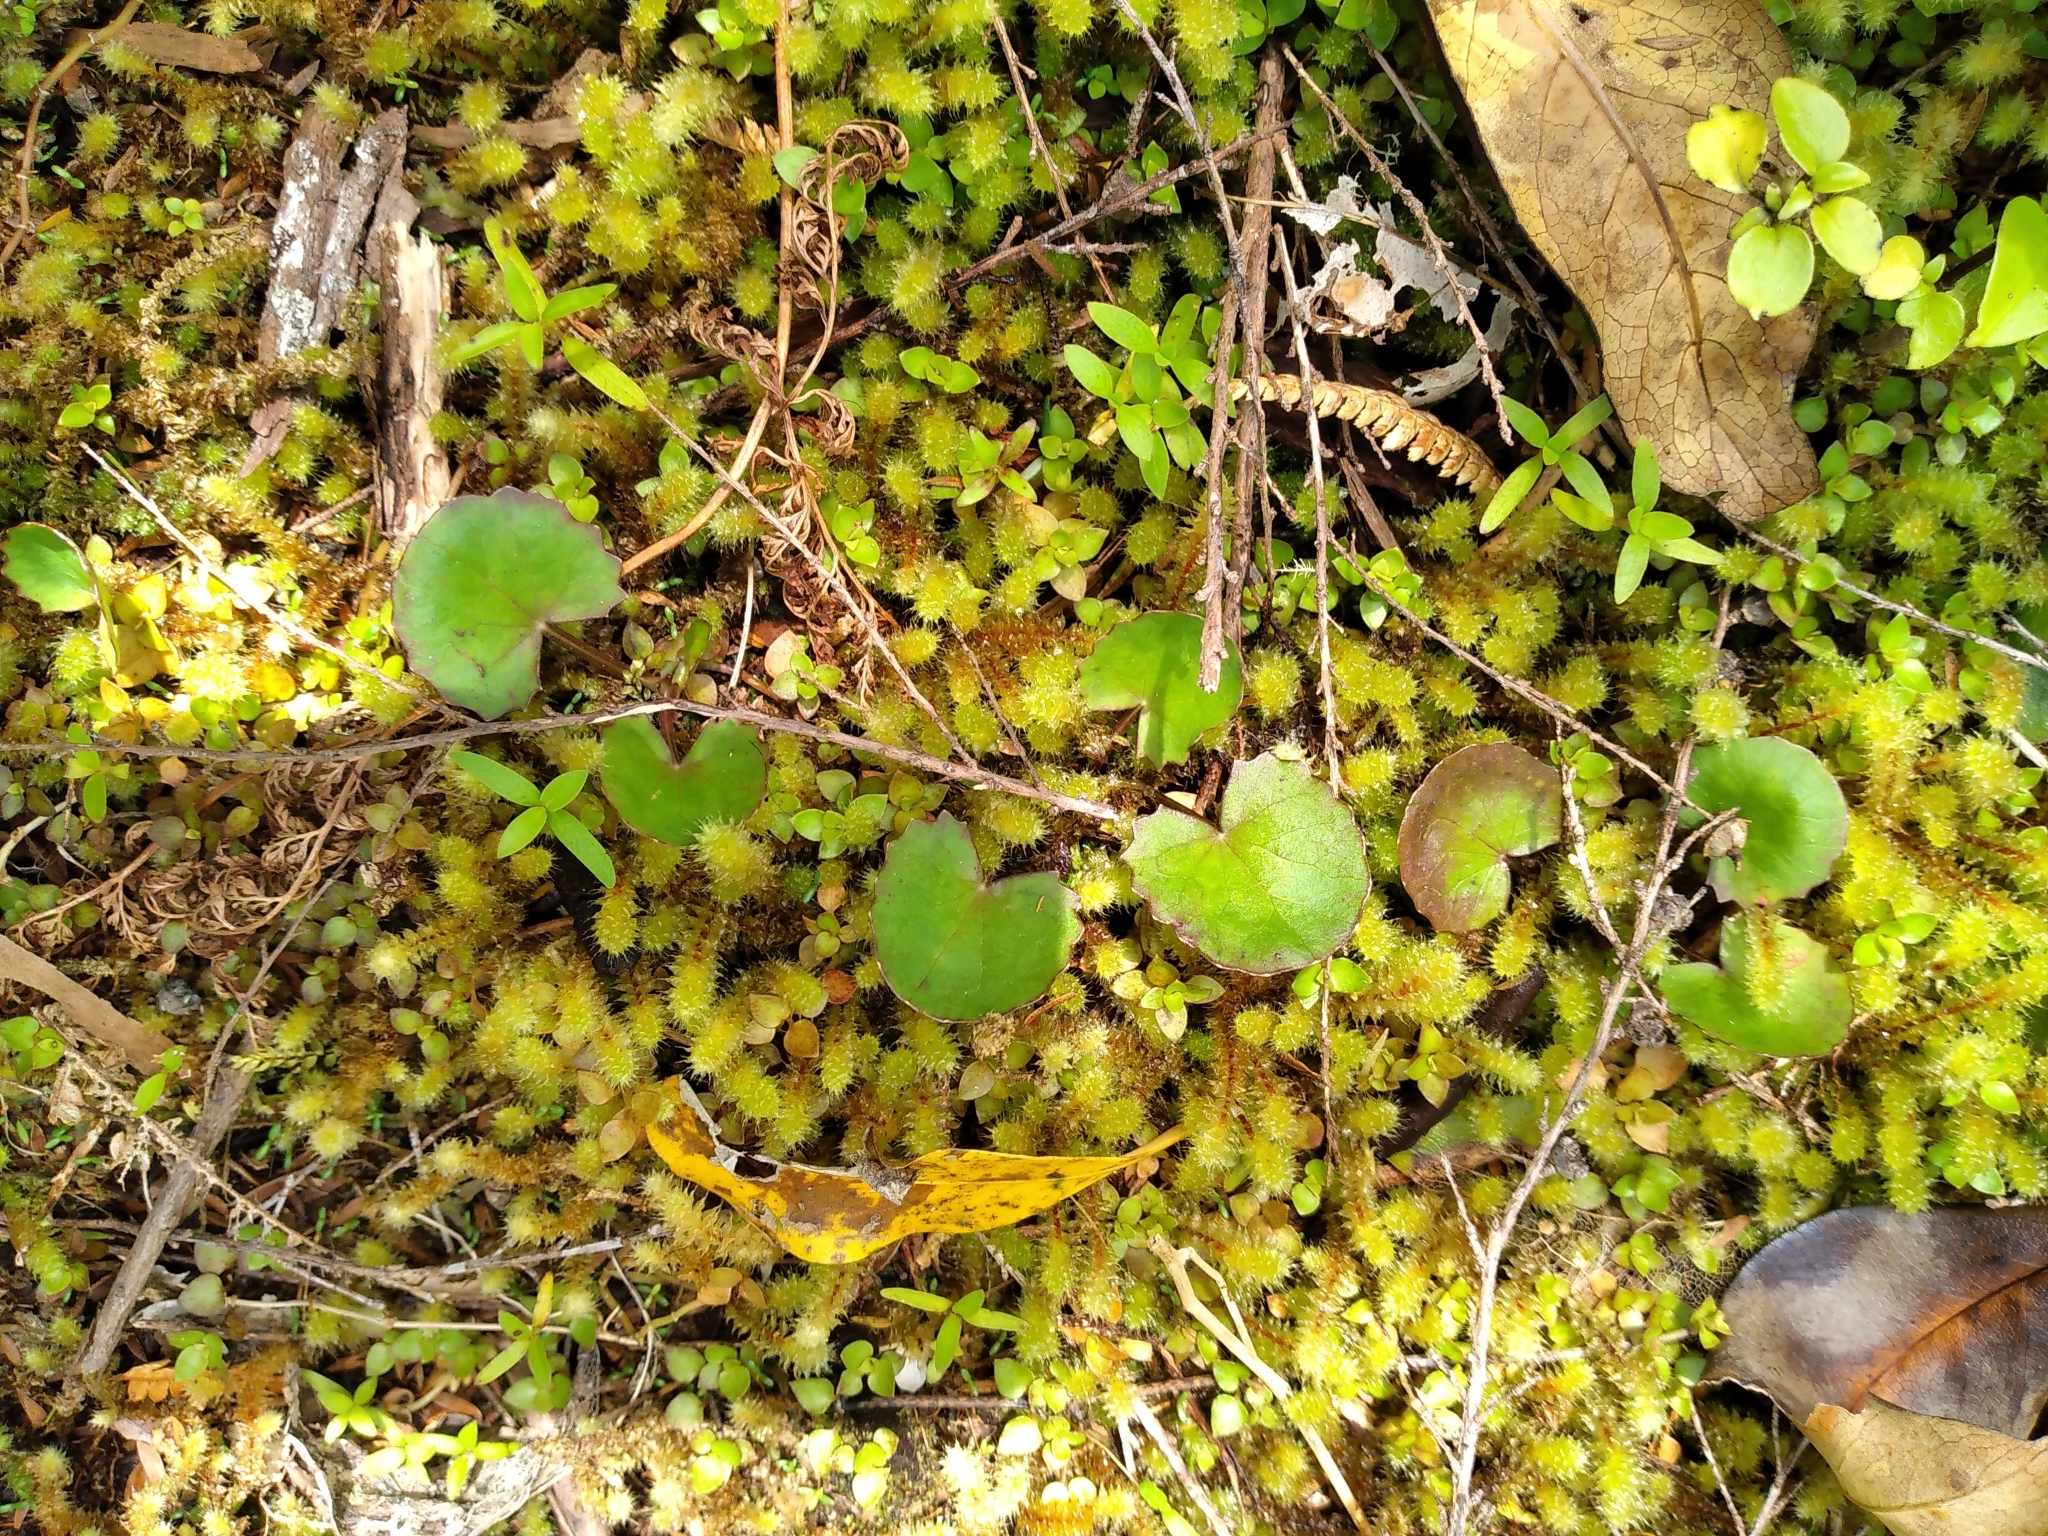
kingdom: Plantae
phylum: Tracheophyta
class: Magnoliopsida
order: Apiales
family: Apiaceae
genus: Centella
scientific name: Centella uniflora
